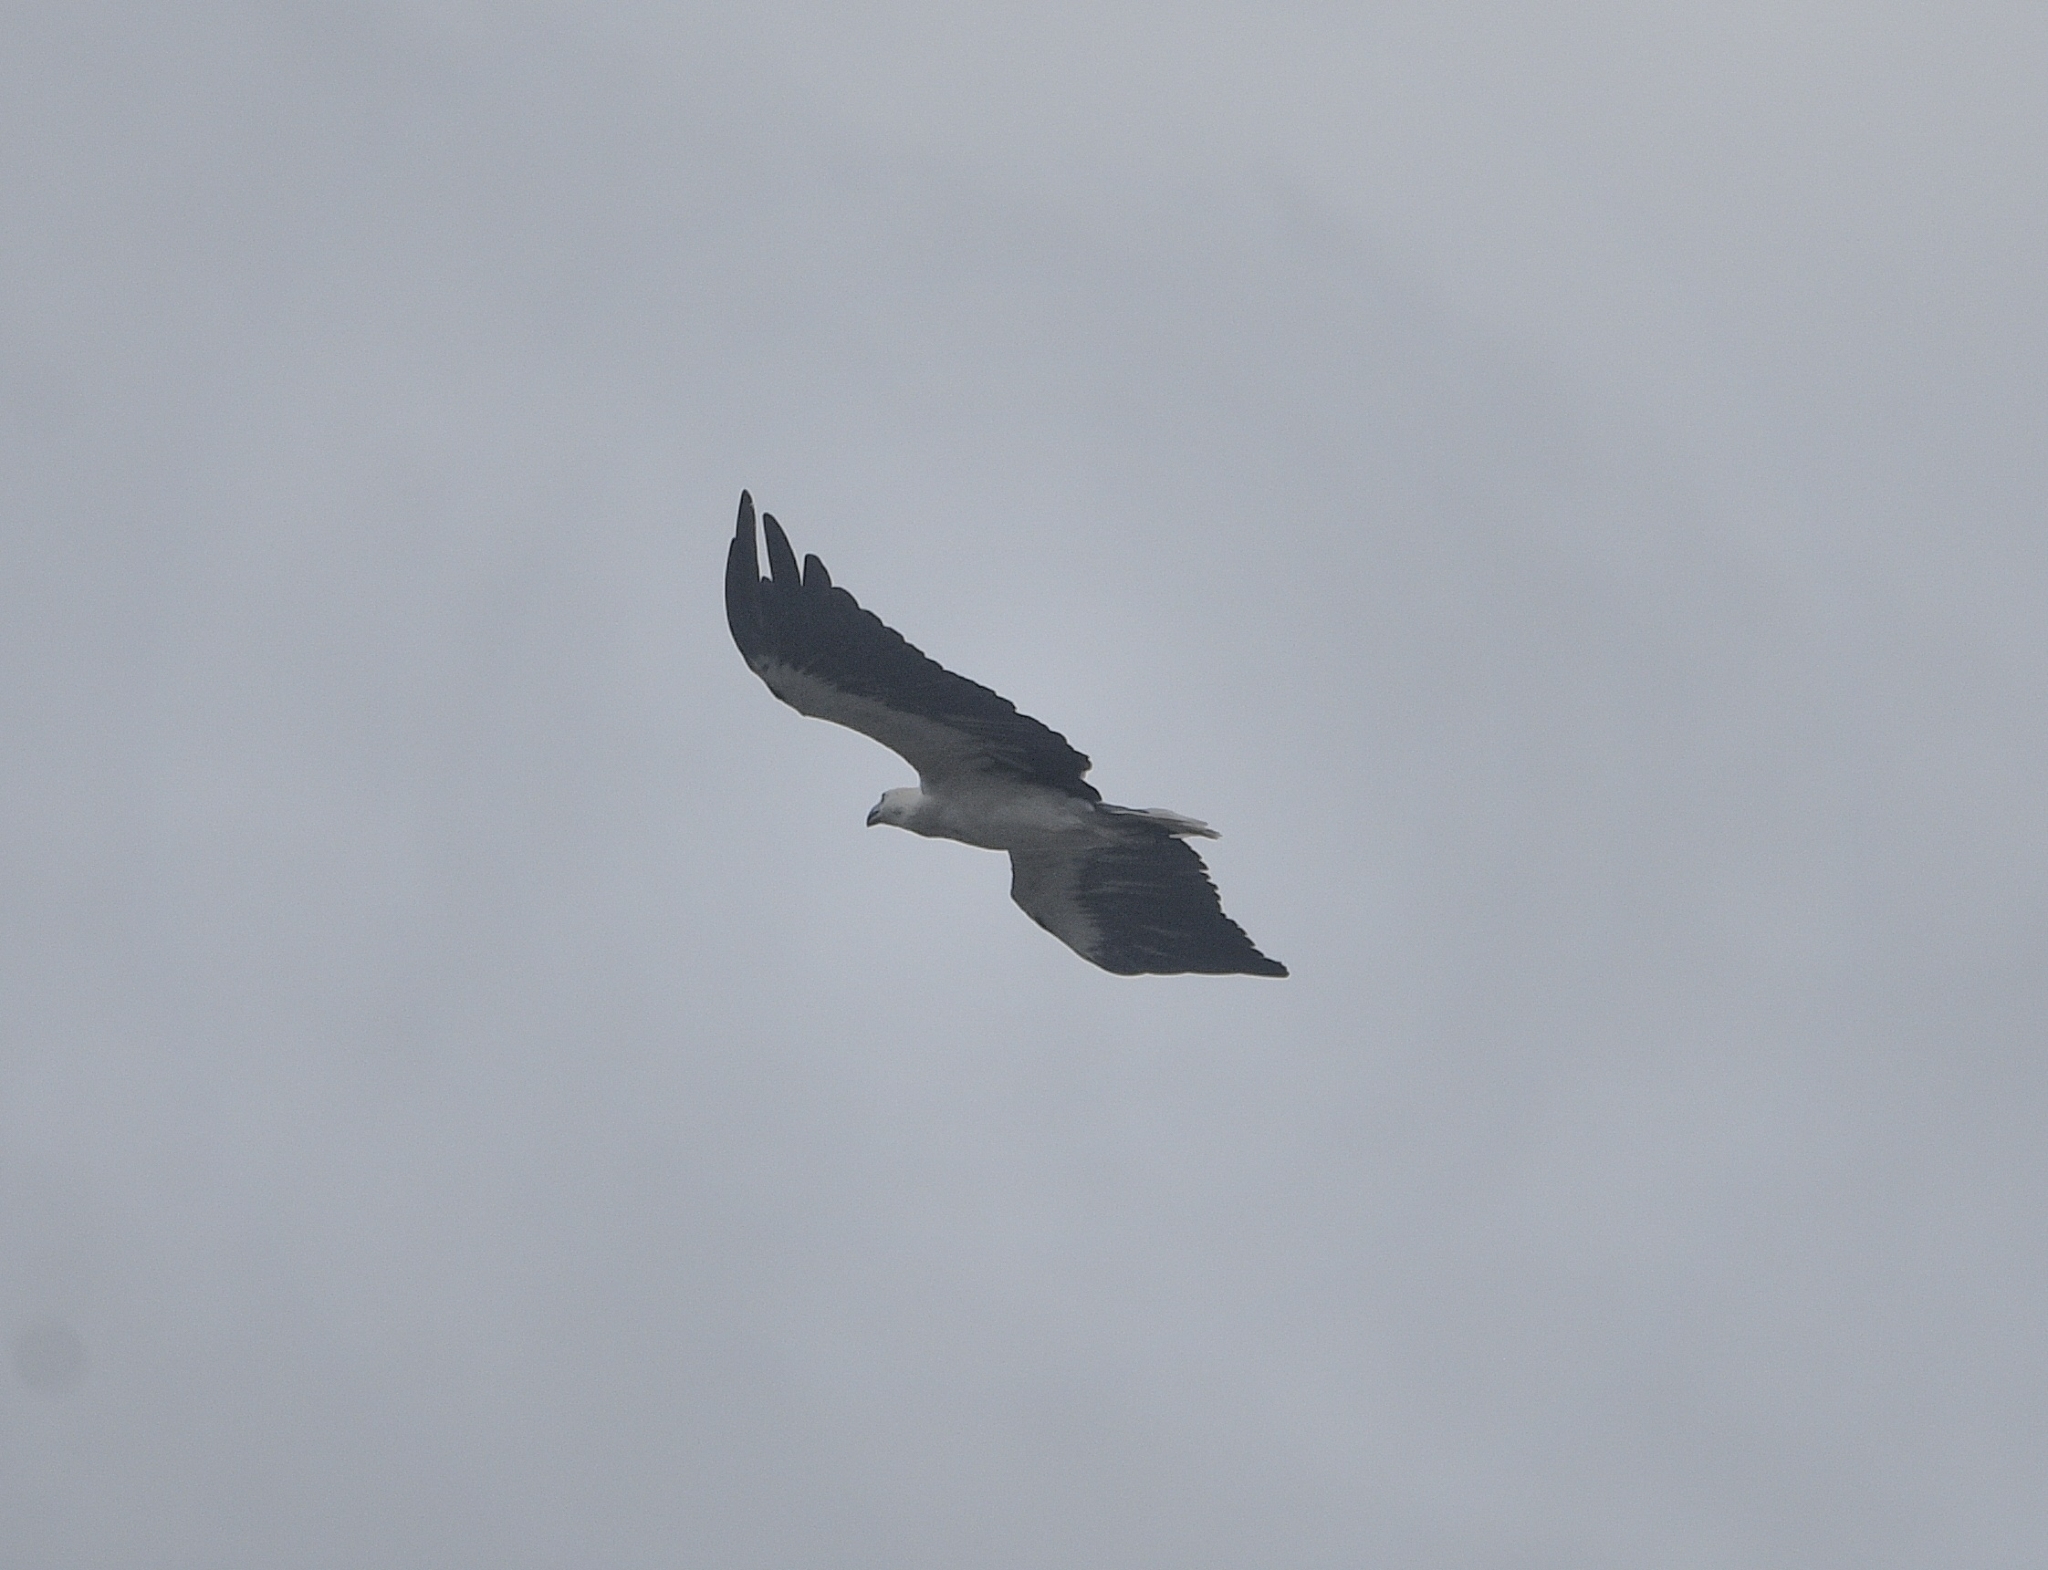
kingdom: Animalia
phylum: Chordata
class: Aves
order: Accipitriformes
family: Accipitridae
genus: Haliaeetus
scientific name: Haliaeetus leucogaster
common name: White-bellied sea eagle
